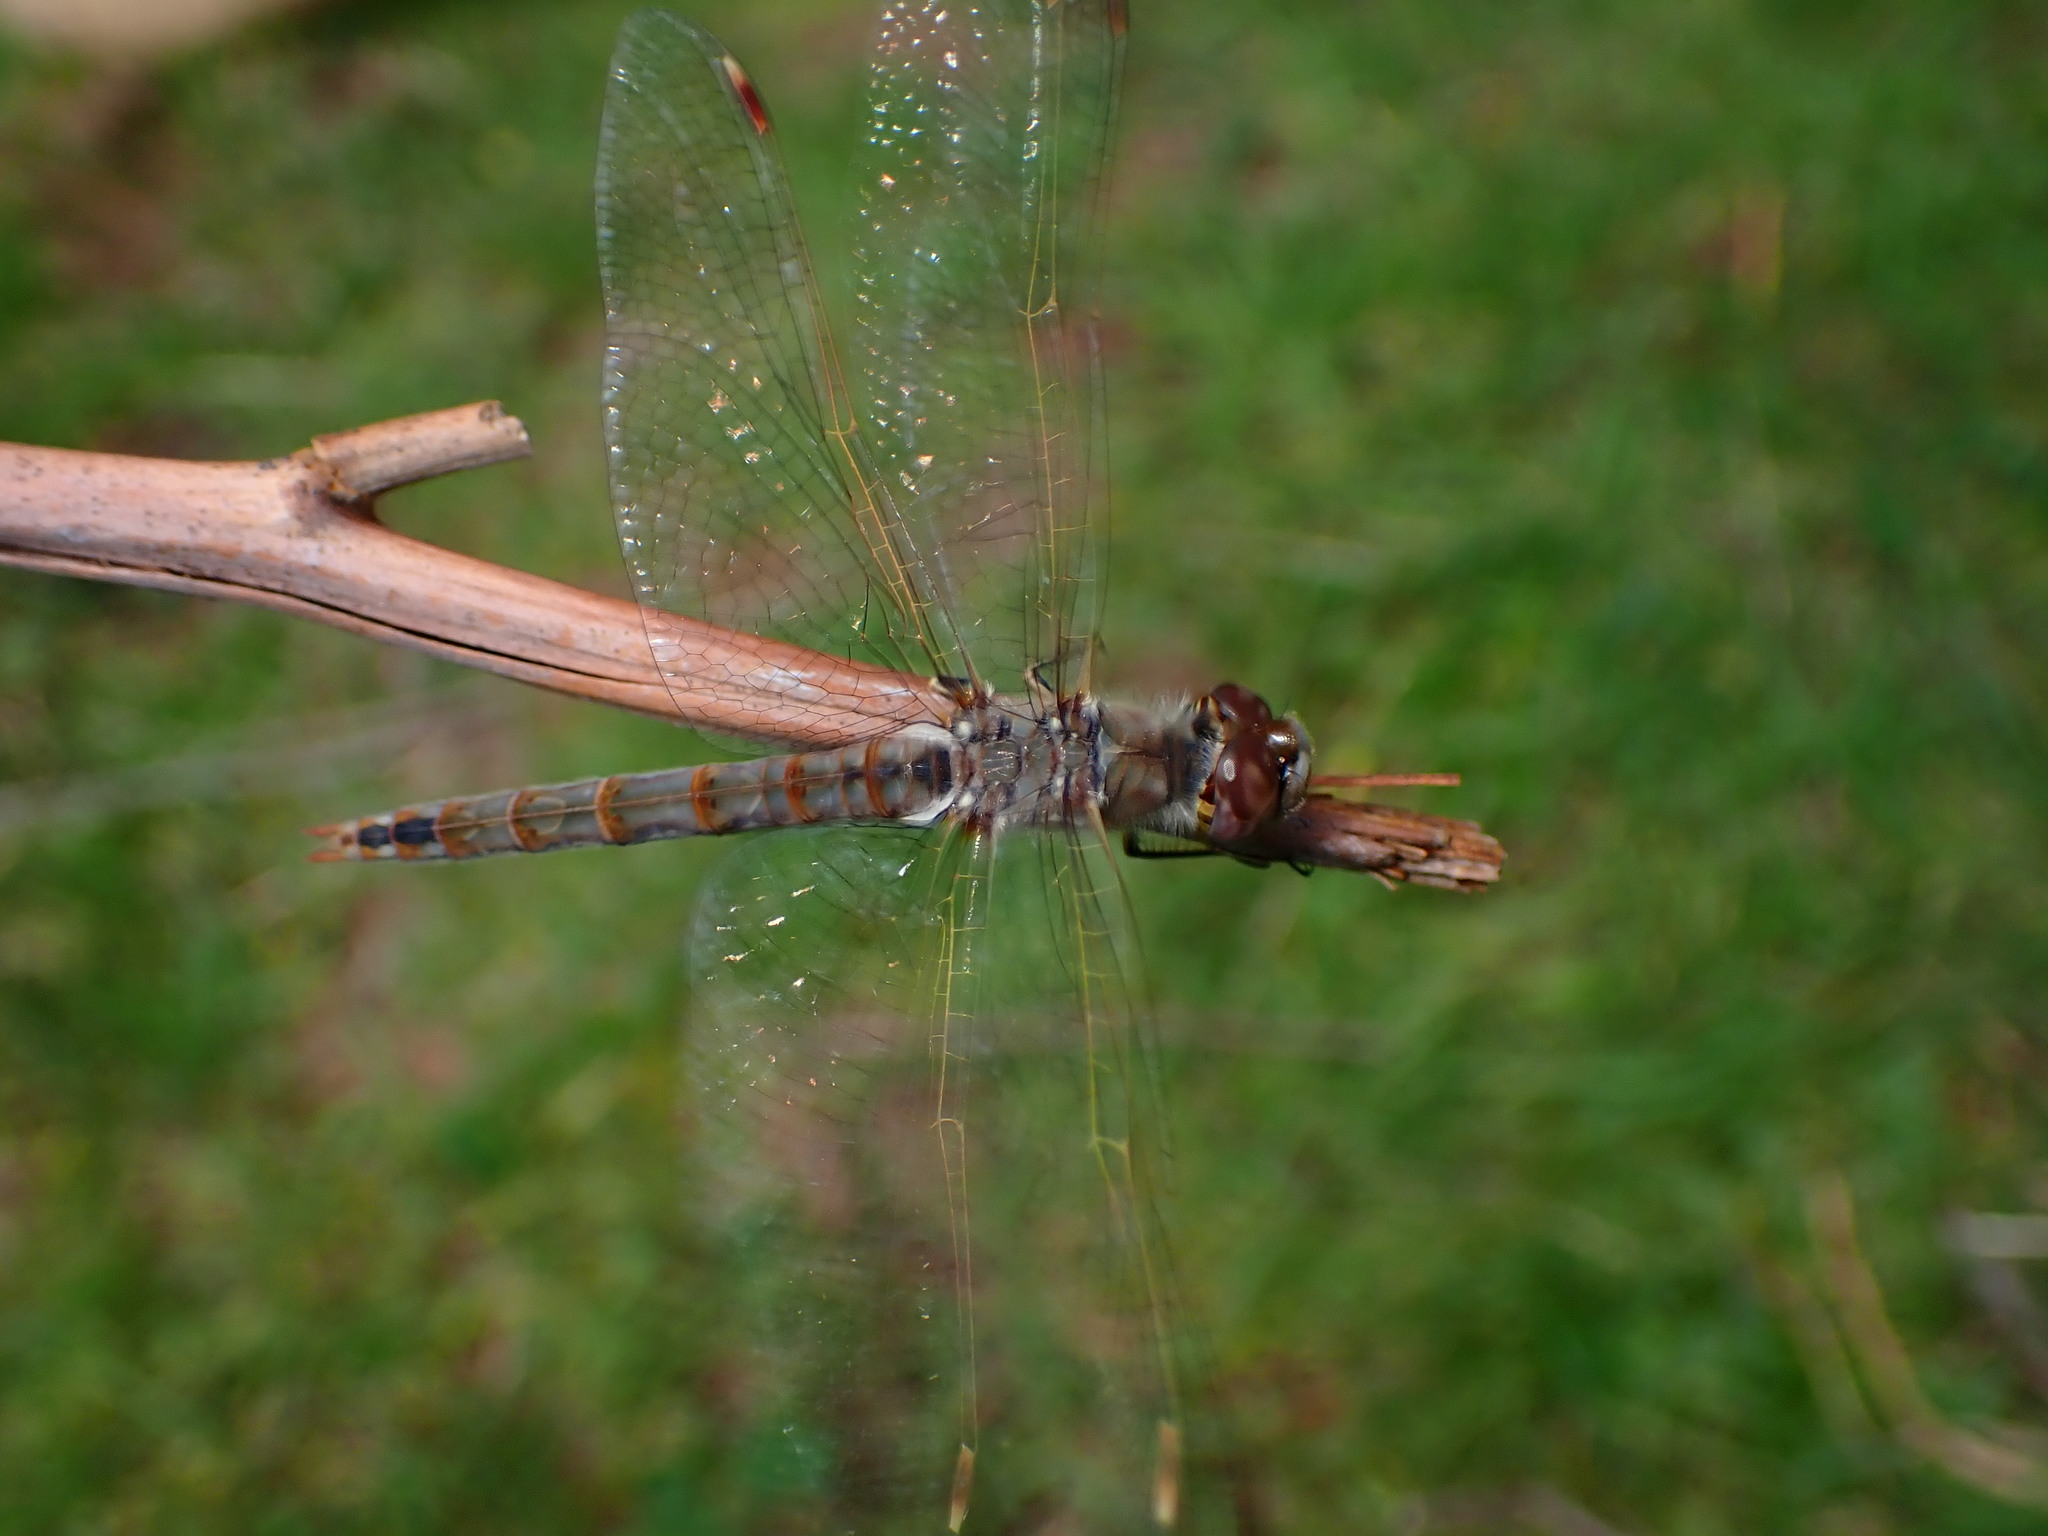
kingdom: Animalia
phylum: Arthropoda
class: Insecta
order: Odonata
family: Libellulidae
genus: Sympetrum
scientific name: Sympetrum corruptum
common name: Variegated meadowhawk
